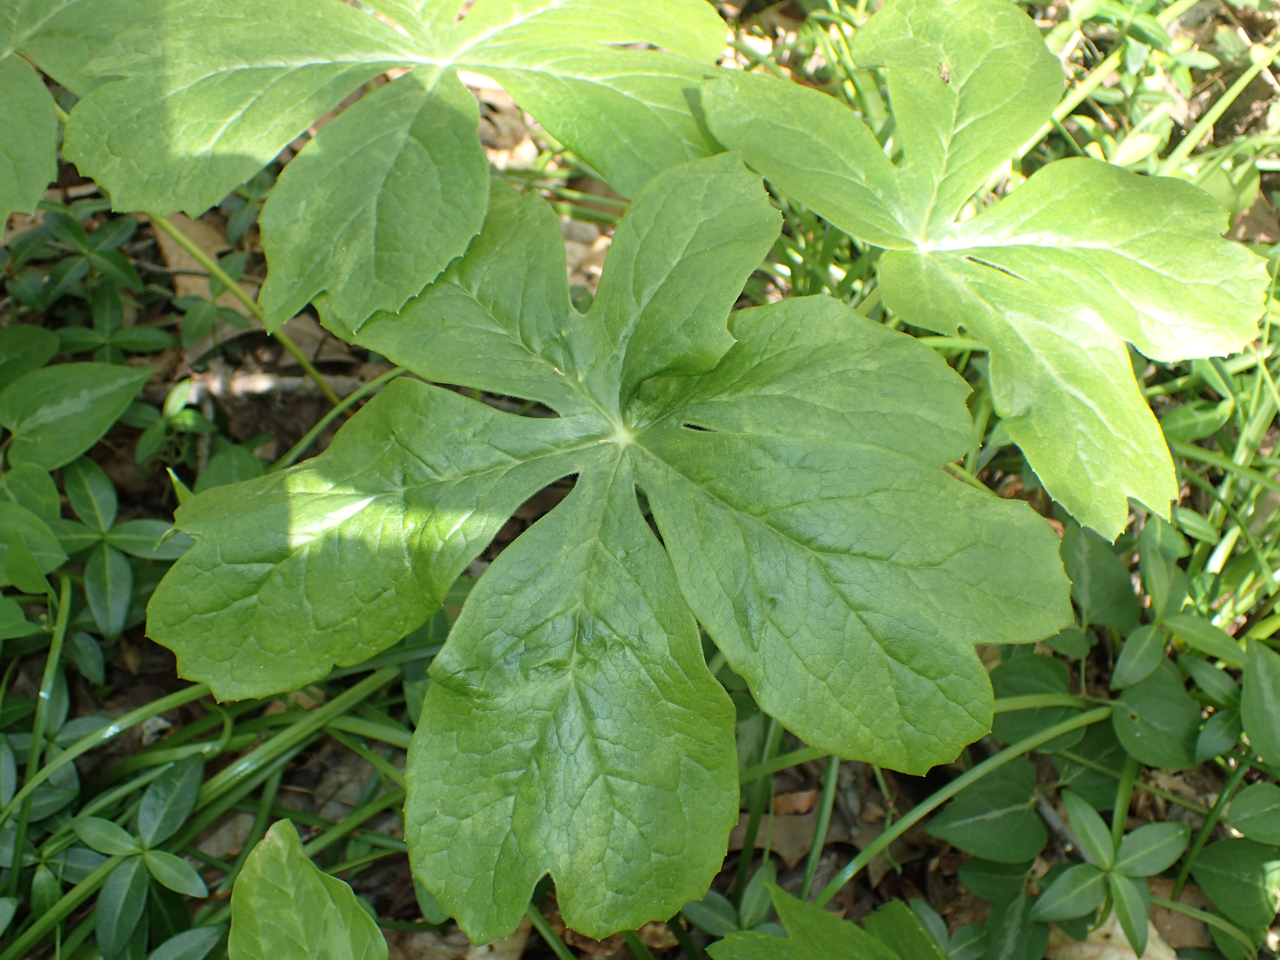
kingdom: Plantae
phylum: Tracheophyta
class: Magnoliopsida
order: Ranunculales
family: Berberidaceae
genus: Podophyllum
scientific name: Podophyllum peltatum
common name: Wild mandrake
